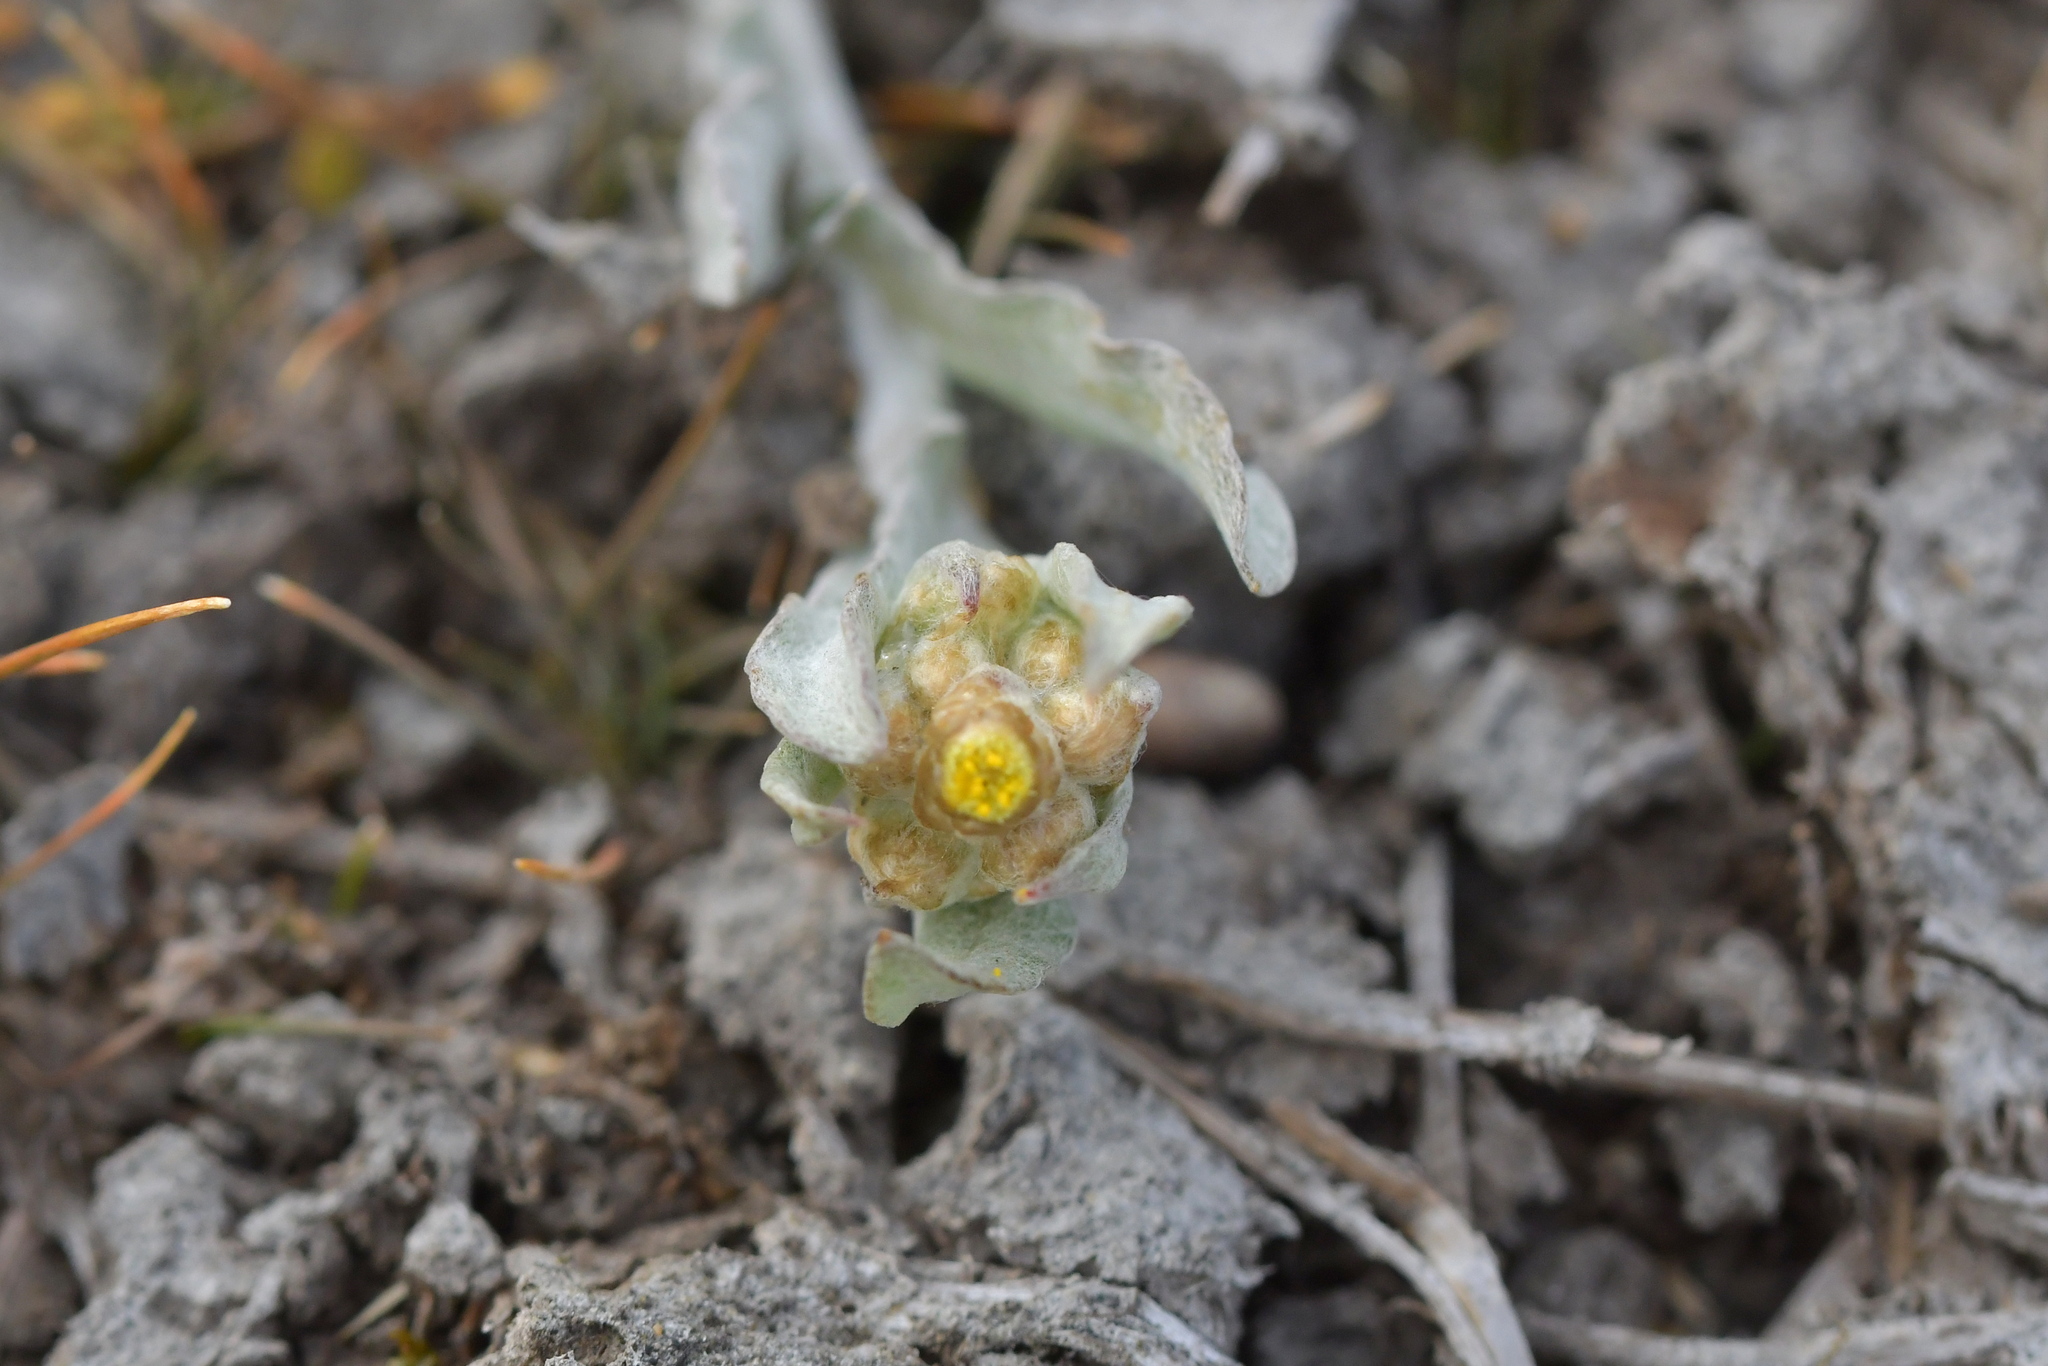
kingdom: Plantae
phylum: Tracheophyta
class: Magnoliopsida
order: Asterales
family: Asteraceae
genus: Pseudognaphalium
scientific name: Pseudognaphalium ephemerum
